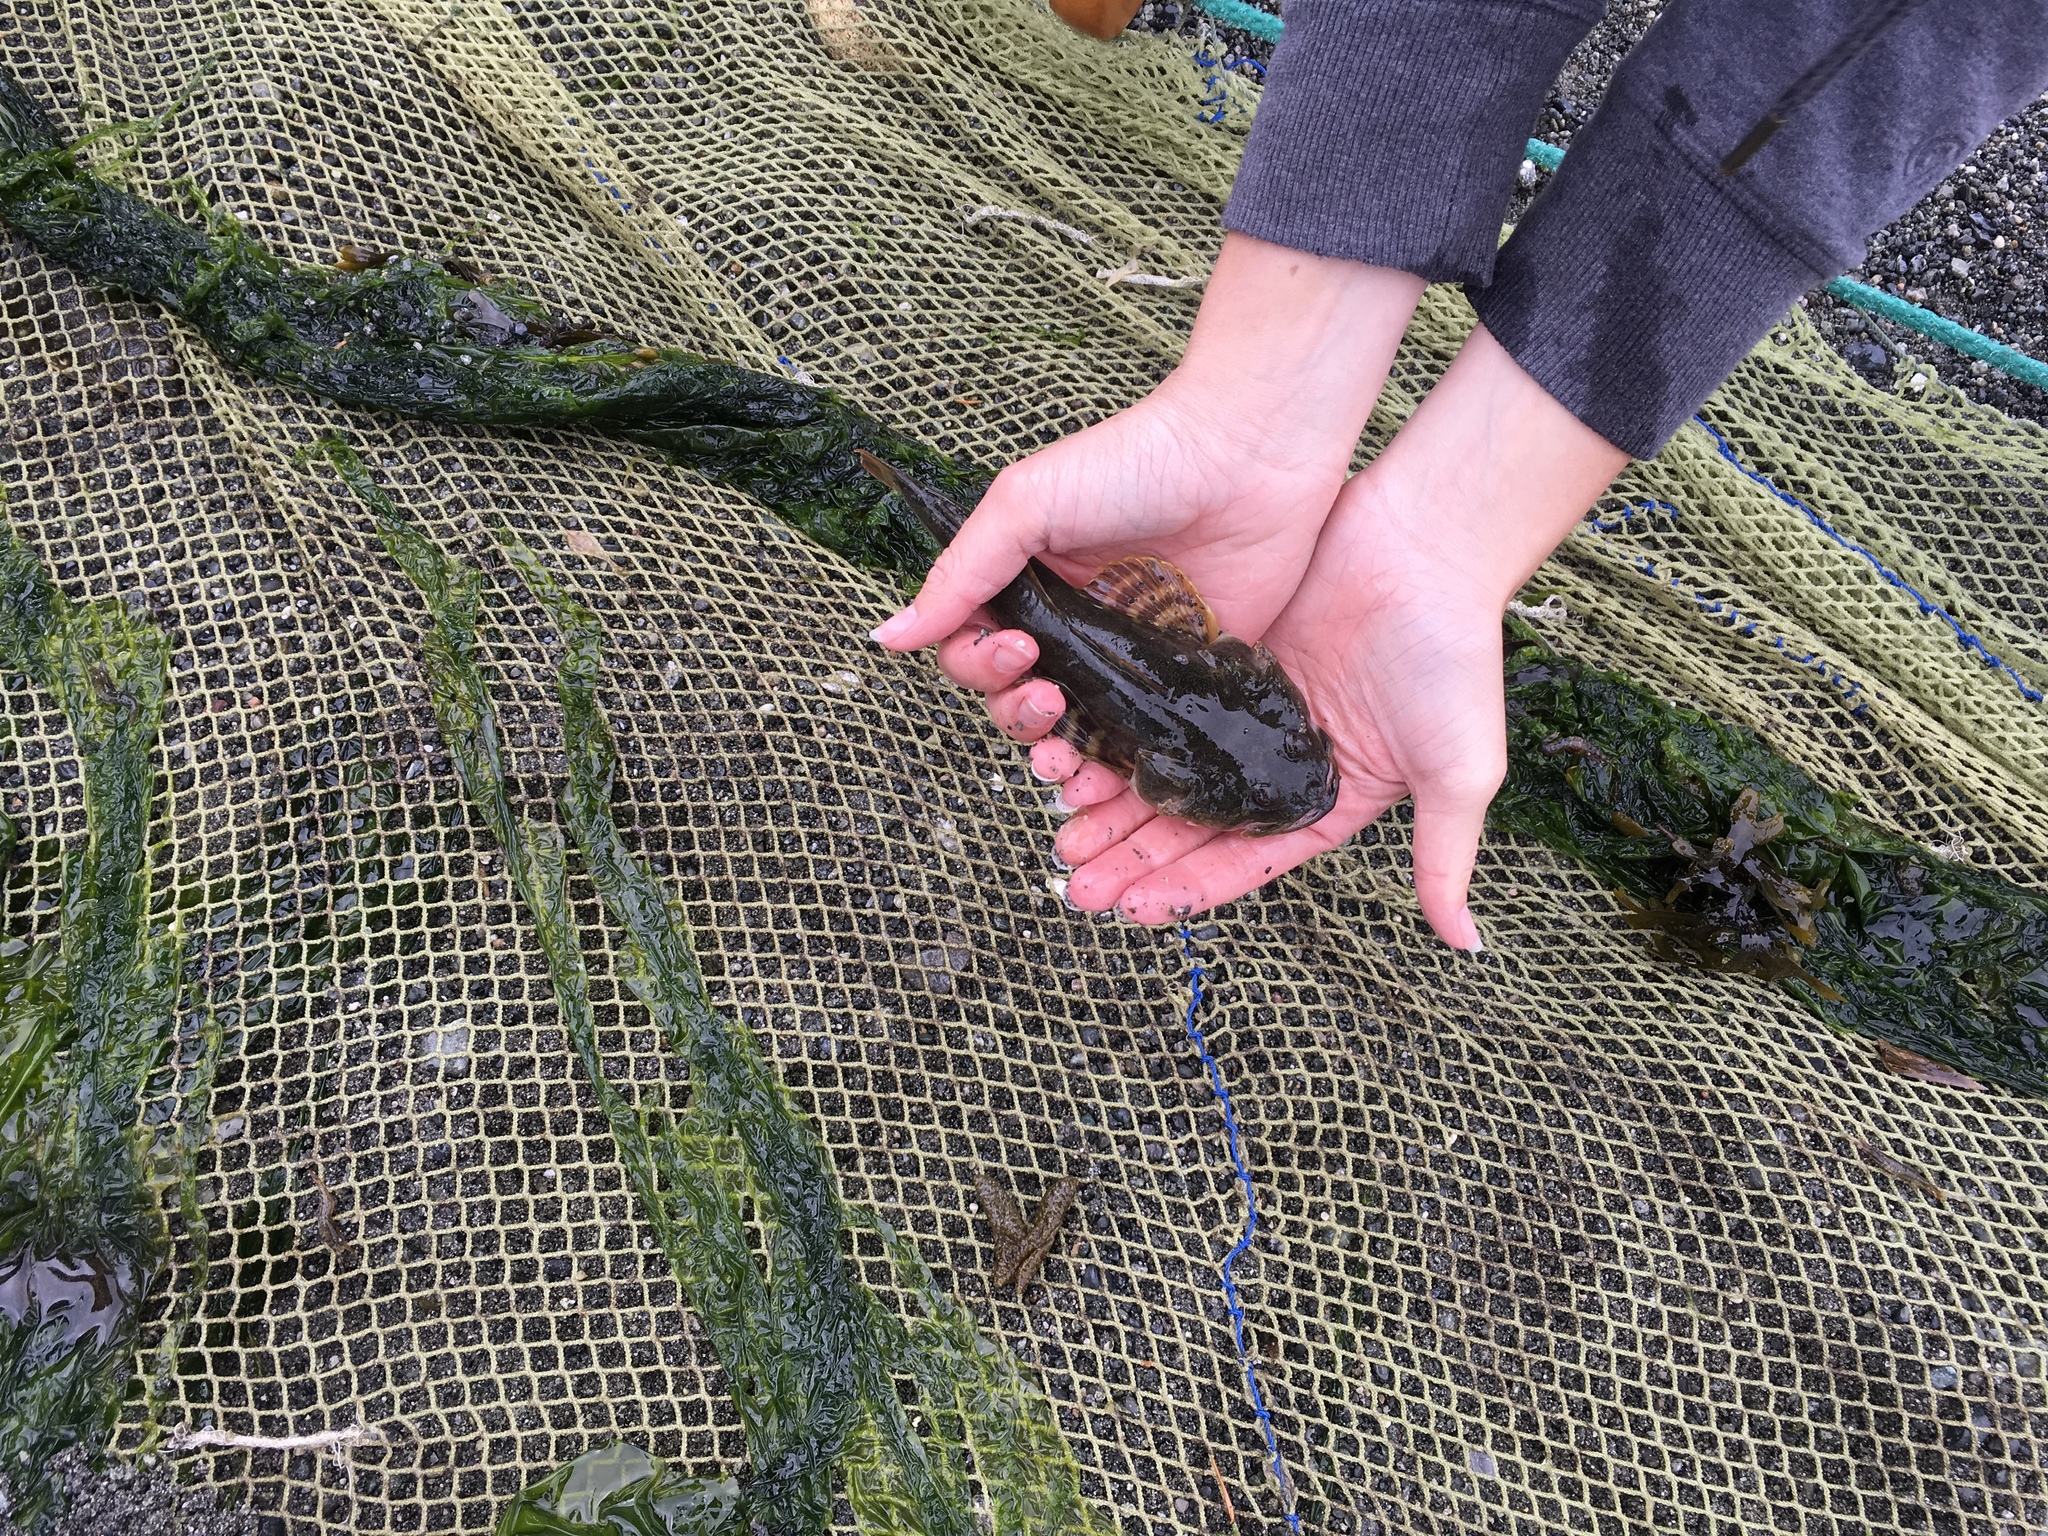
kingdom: Animalia
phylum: Chordata
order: Scorpaeniformes
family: Cottidae
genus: Leptocottus
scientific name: Leptocottus armatus
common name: Pacific staghorn sculpin
